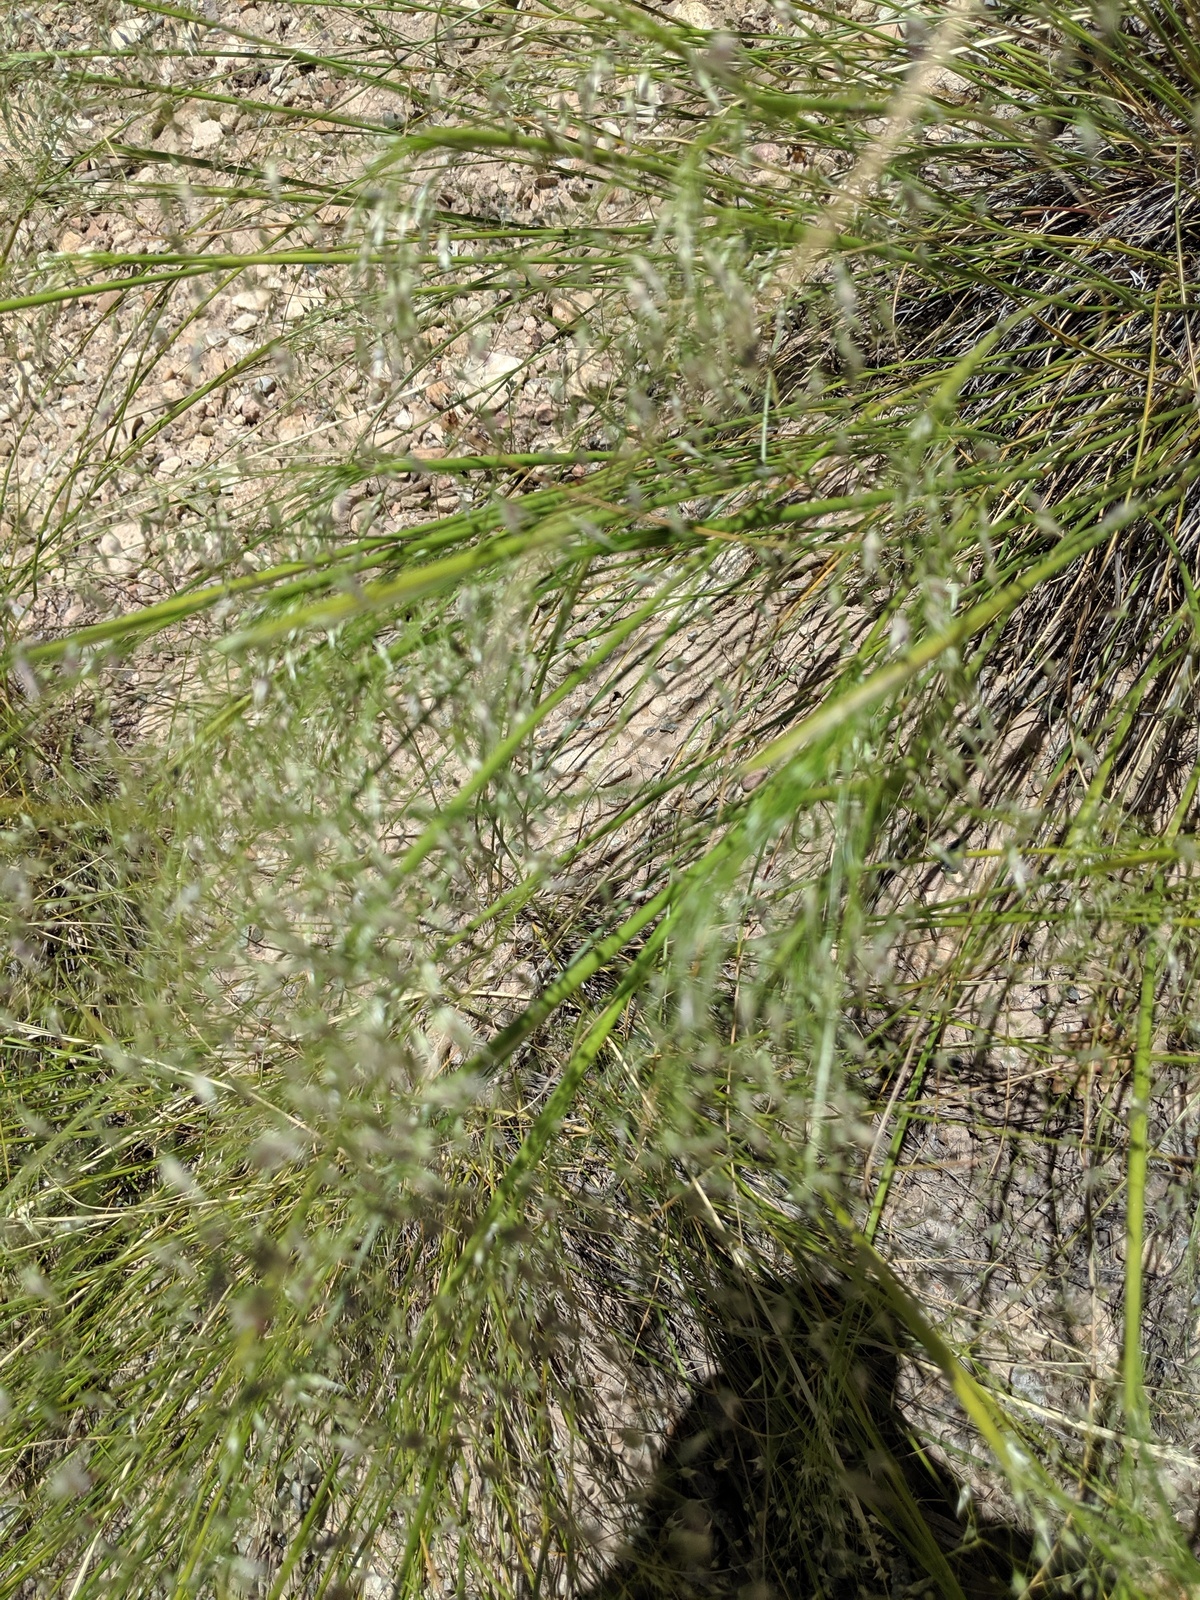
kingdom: Plantae
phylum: Tracheophyta
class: Liliopsida
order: Poales
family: Poaceae
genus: Eriocoma
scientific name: Eriocoma hymenoides
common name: Indian mountain ricegrass
